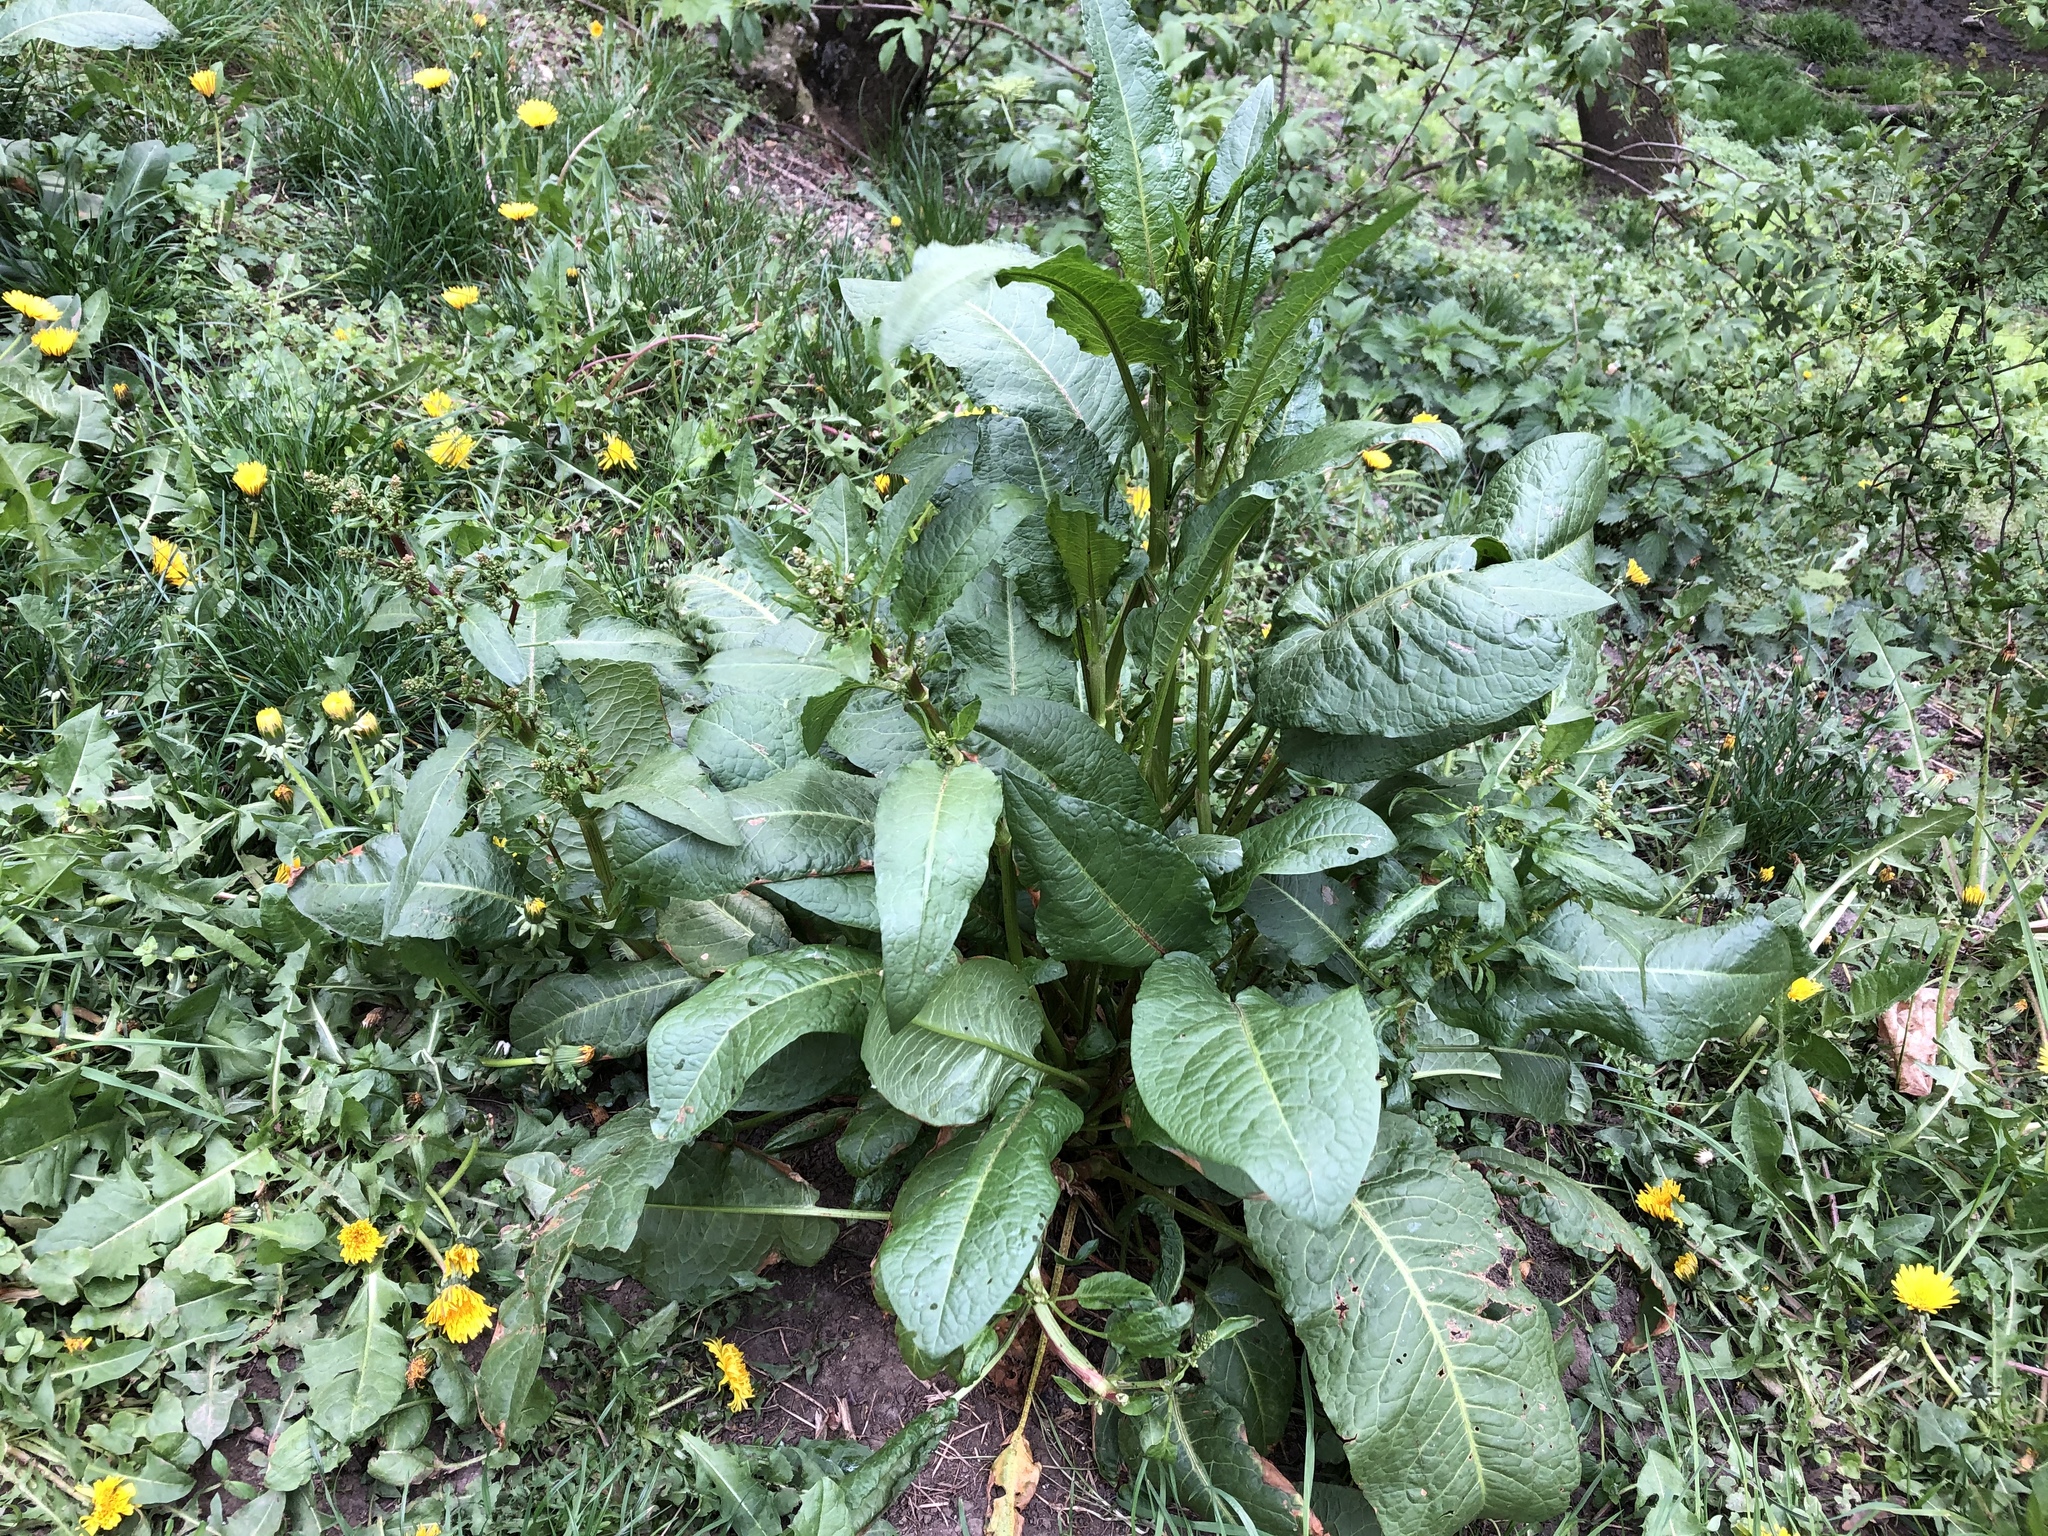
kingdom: Plantae
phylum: Tracheophyta
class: Magnoliopsida
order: Caryophyllales
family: Polygonaceae
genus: Rumex
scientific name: Rumex obtusifolius
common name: Bitter dock
